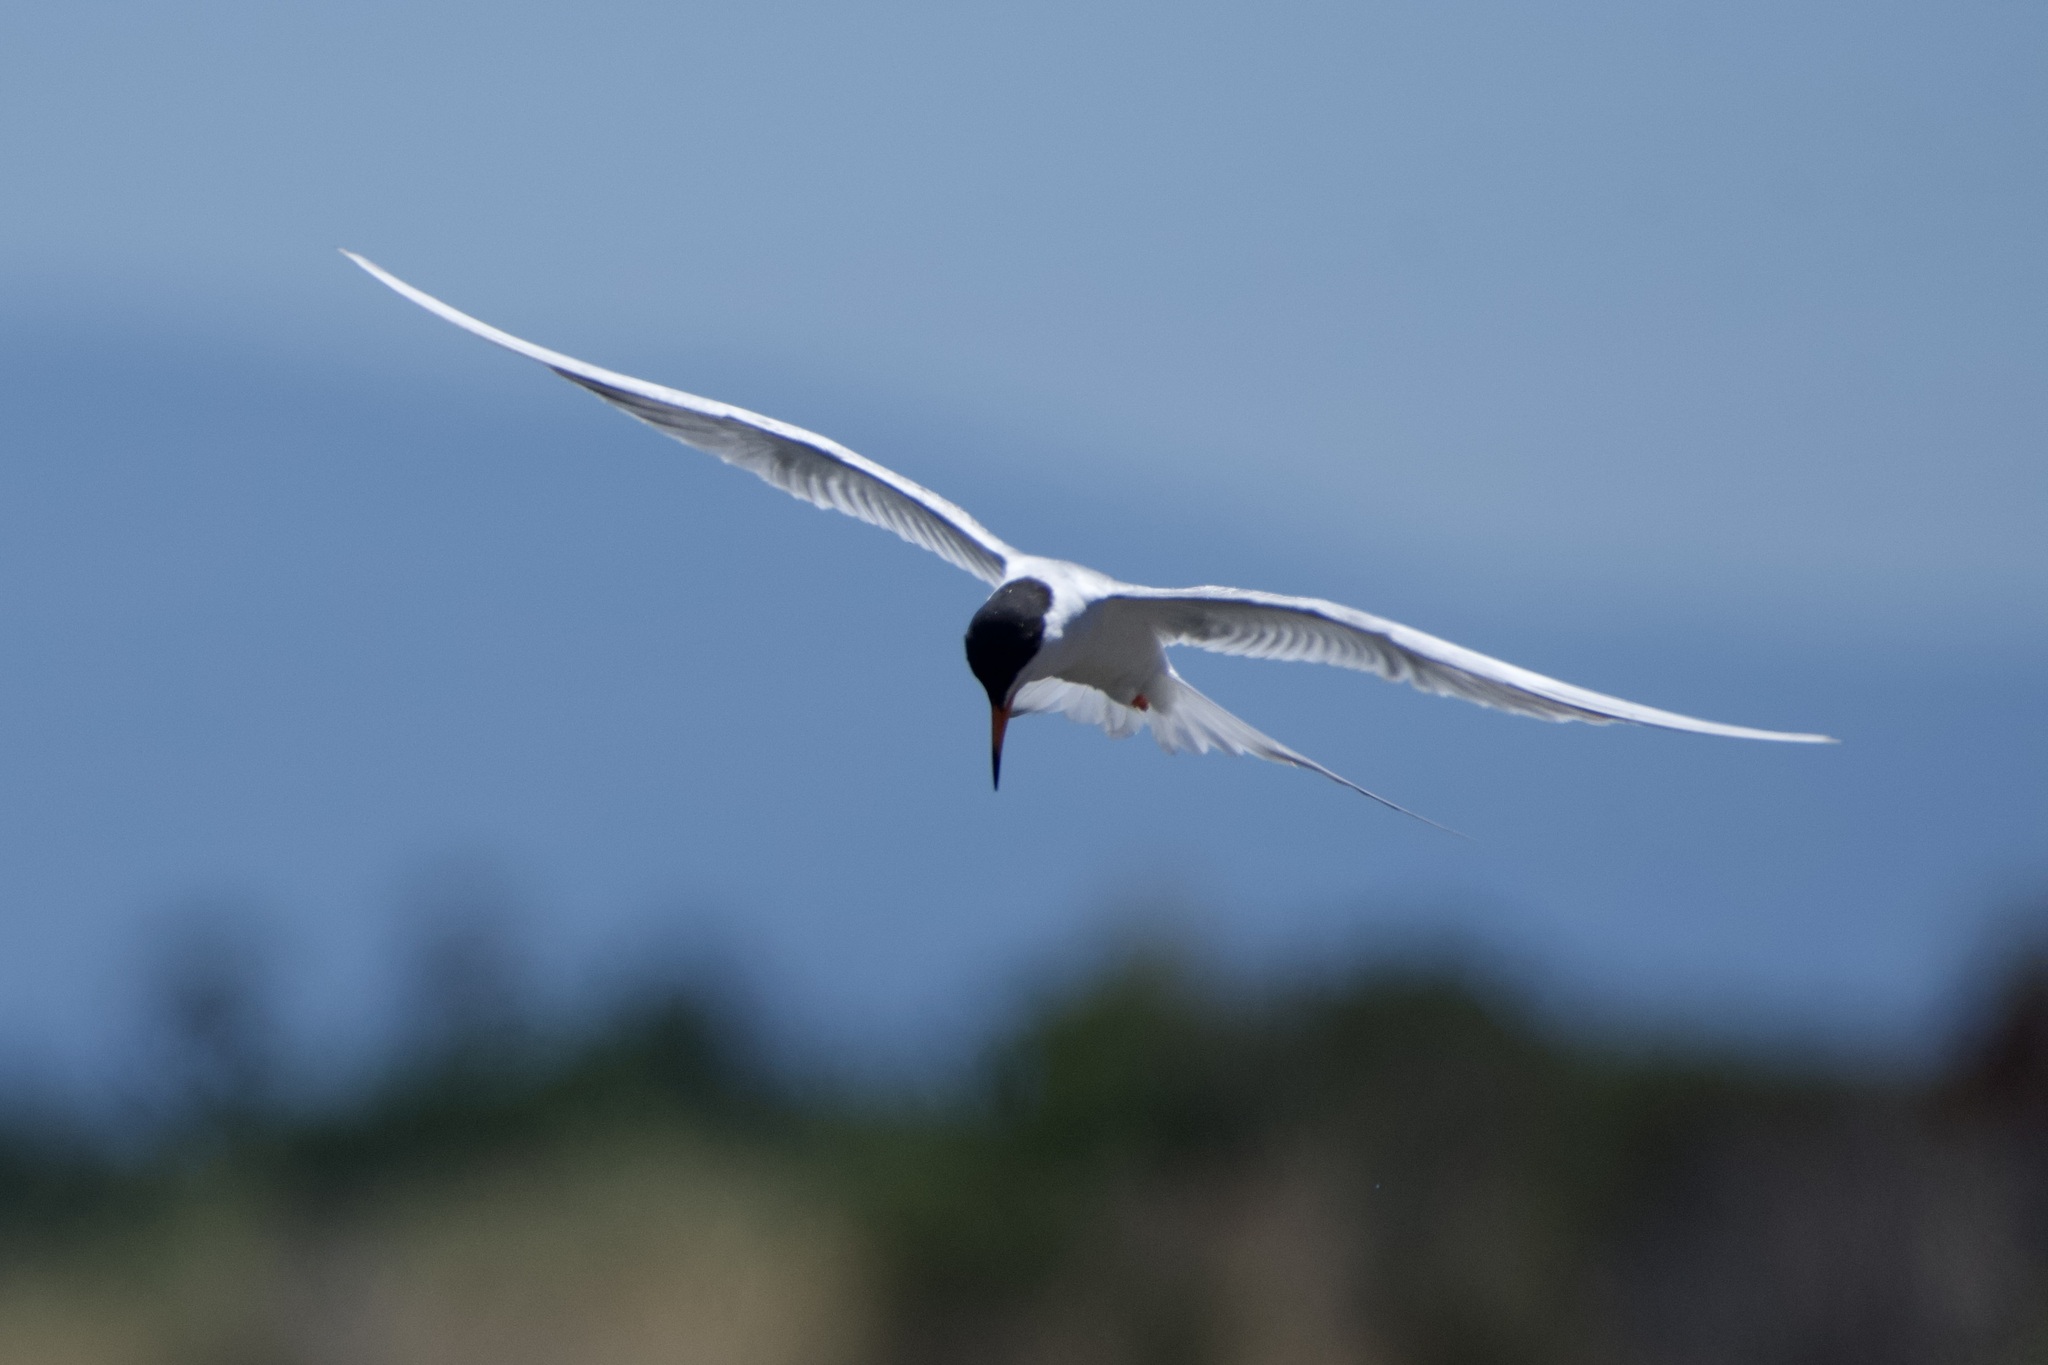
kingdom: Animalia
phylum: Chordata
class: Aves
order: Charadriiformes
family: Laridae
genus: Sterna
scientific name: Sterna forsteri
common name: Forster's tern
